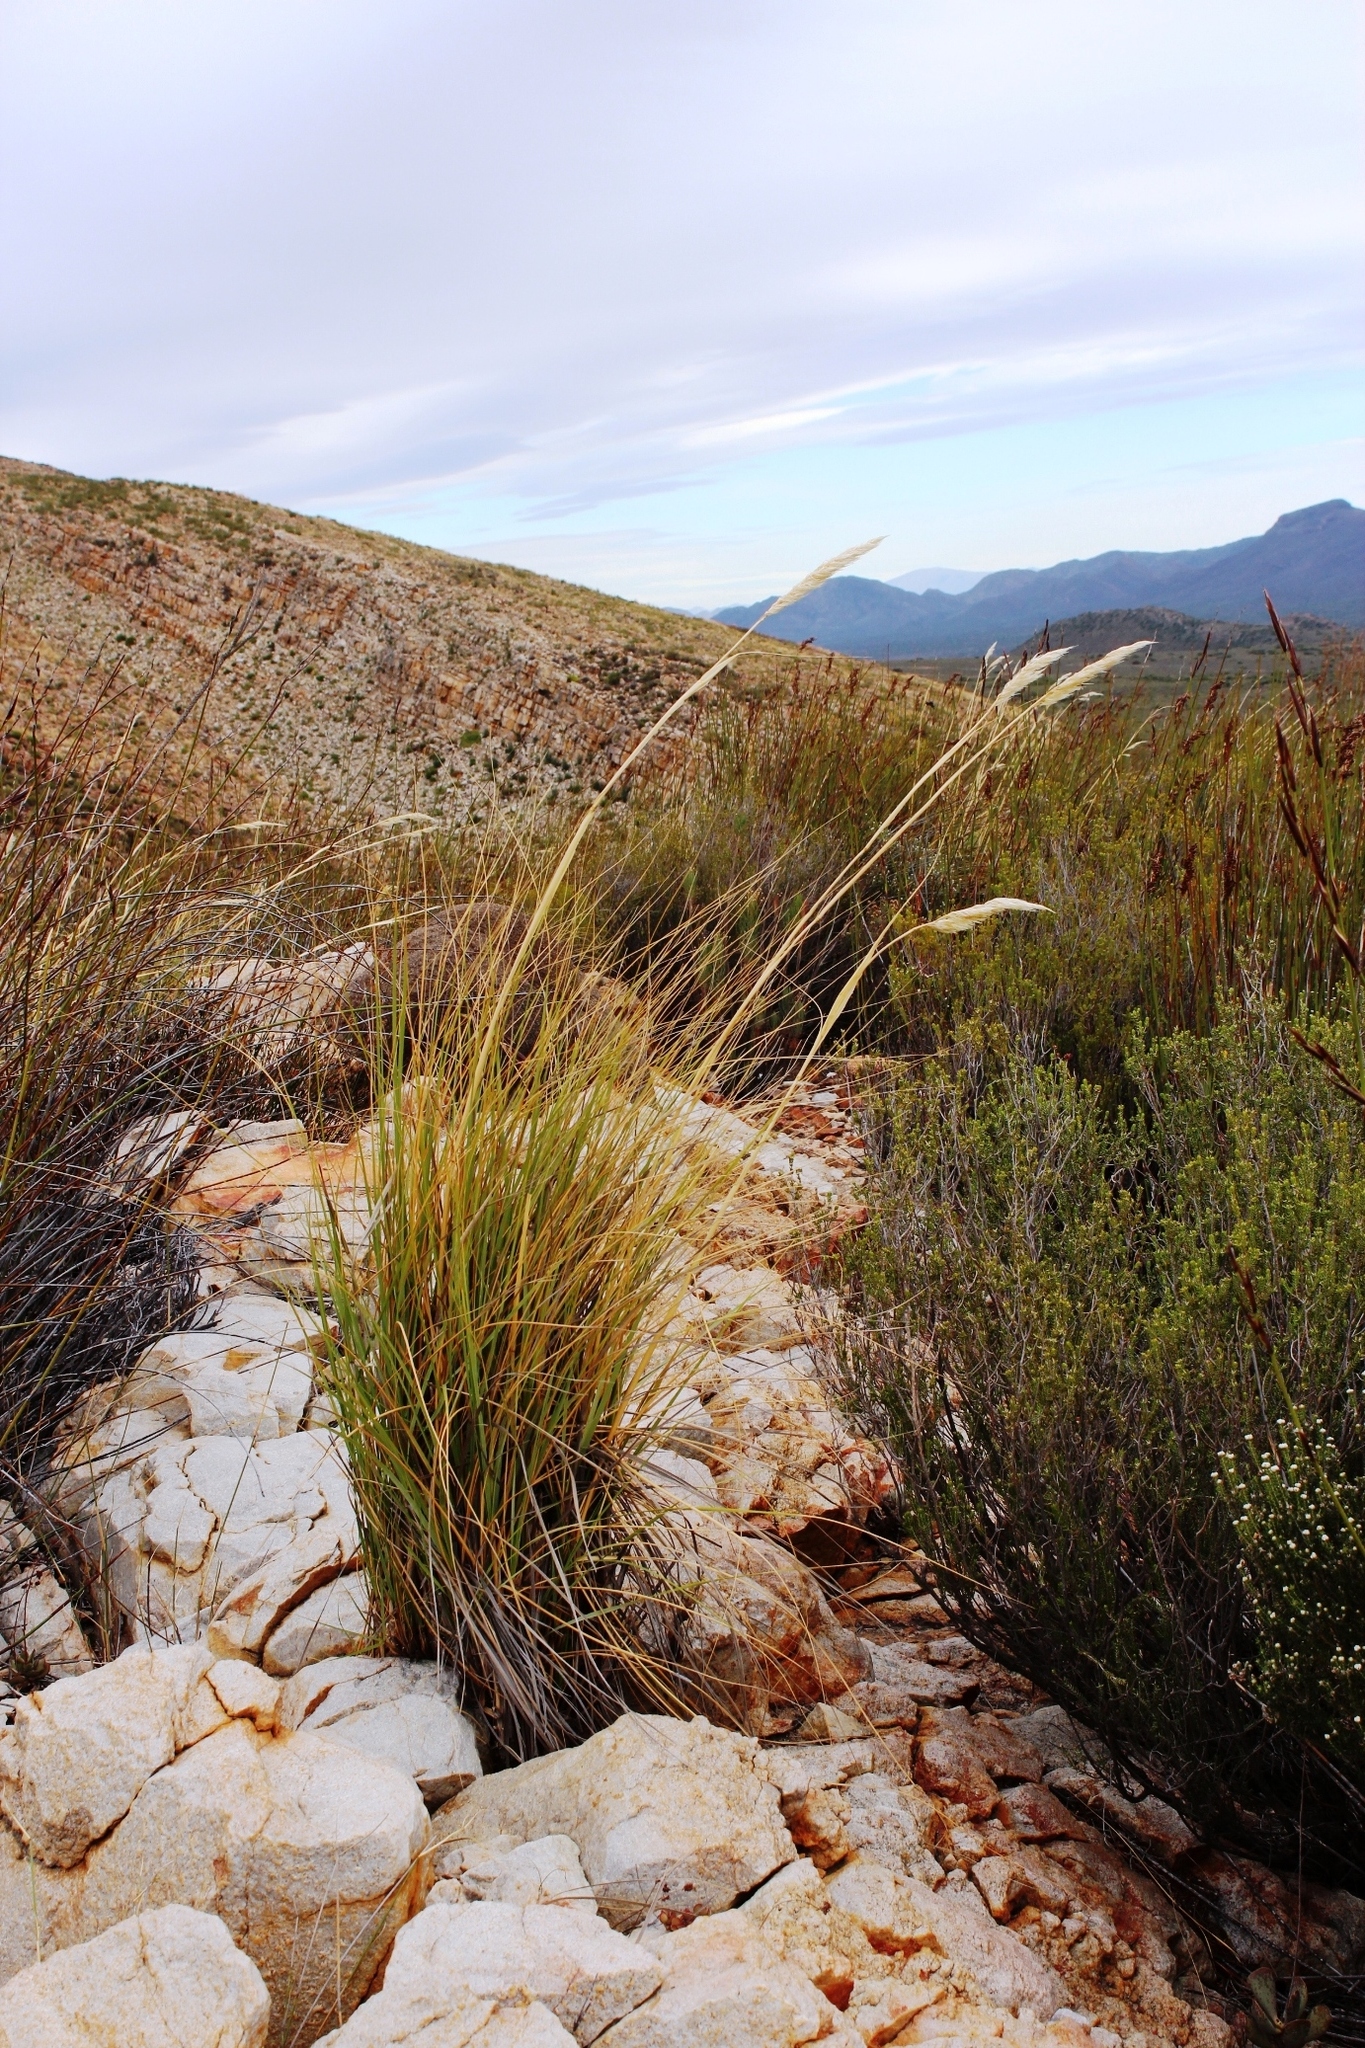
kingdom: Plantae
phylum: Tracheophyta
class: Liliopsida
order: Poales
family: Poaceae
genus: Capeochloa
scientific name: Capeochloa arundinacea
